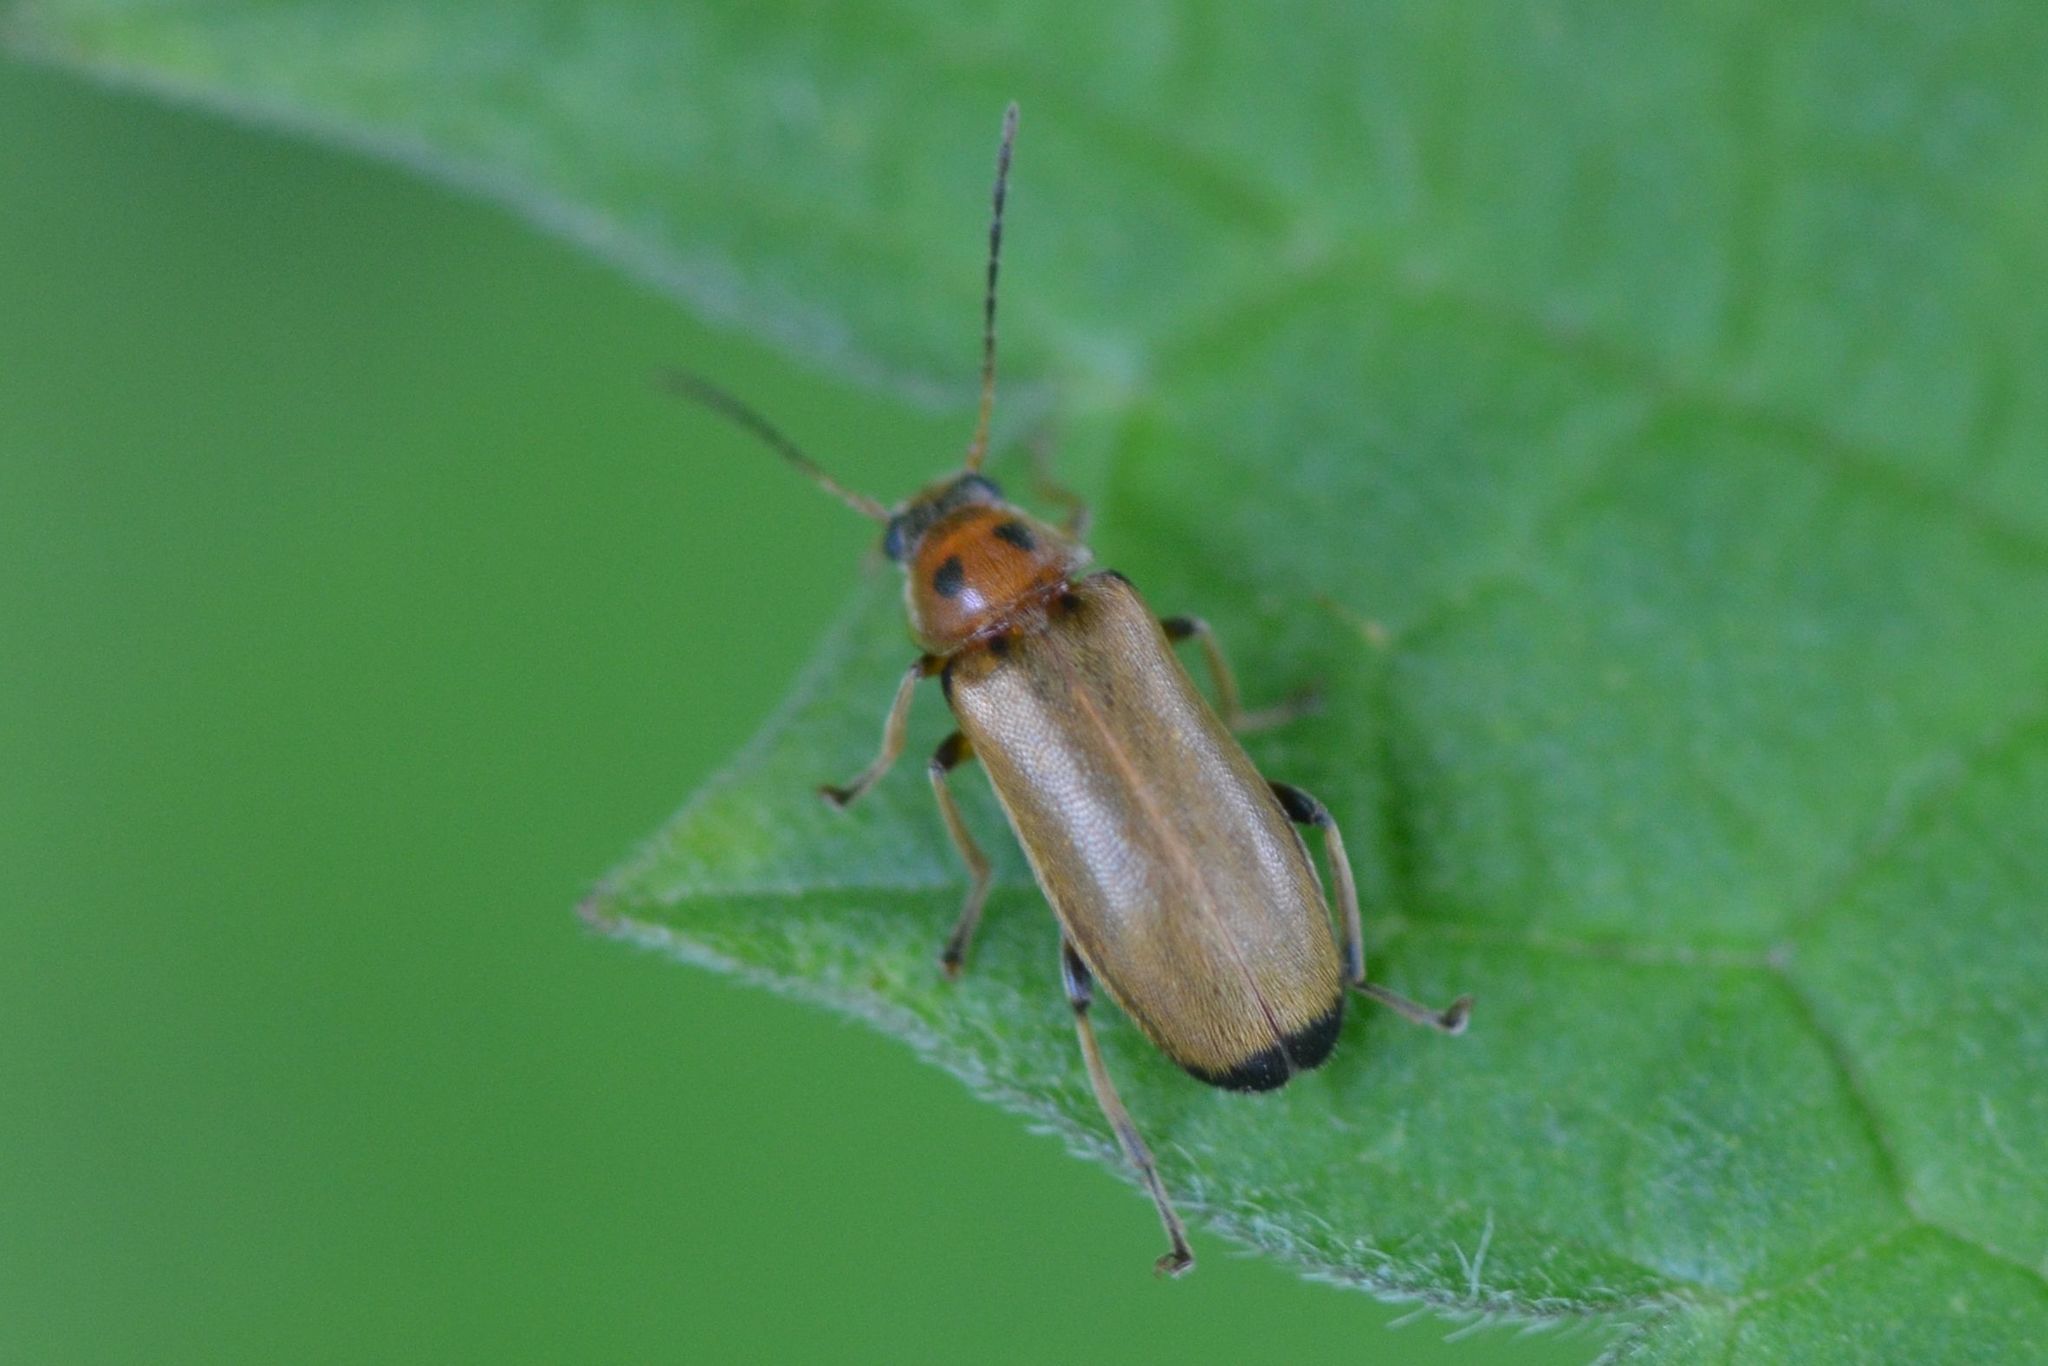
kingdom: Animalia
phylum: Arthropoda
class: Insecta
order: Coleoptera
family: Melandryidae
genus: Osphya
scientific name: Osphya bipunctata
